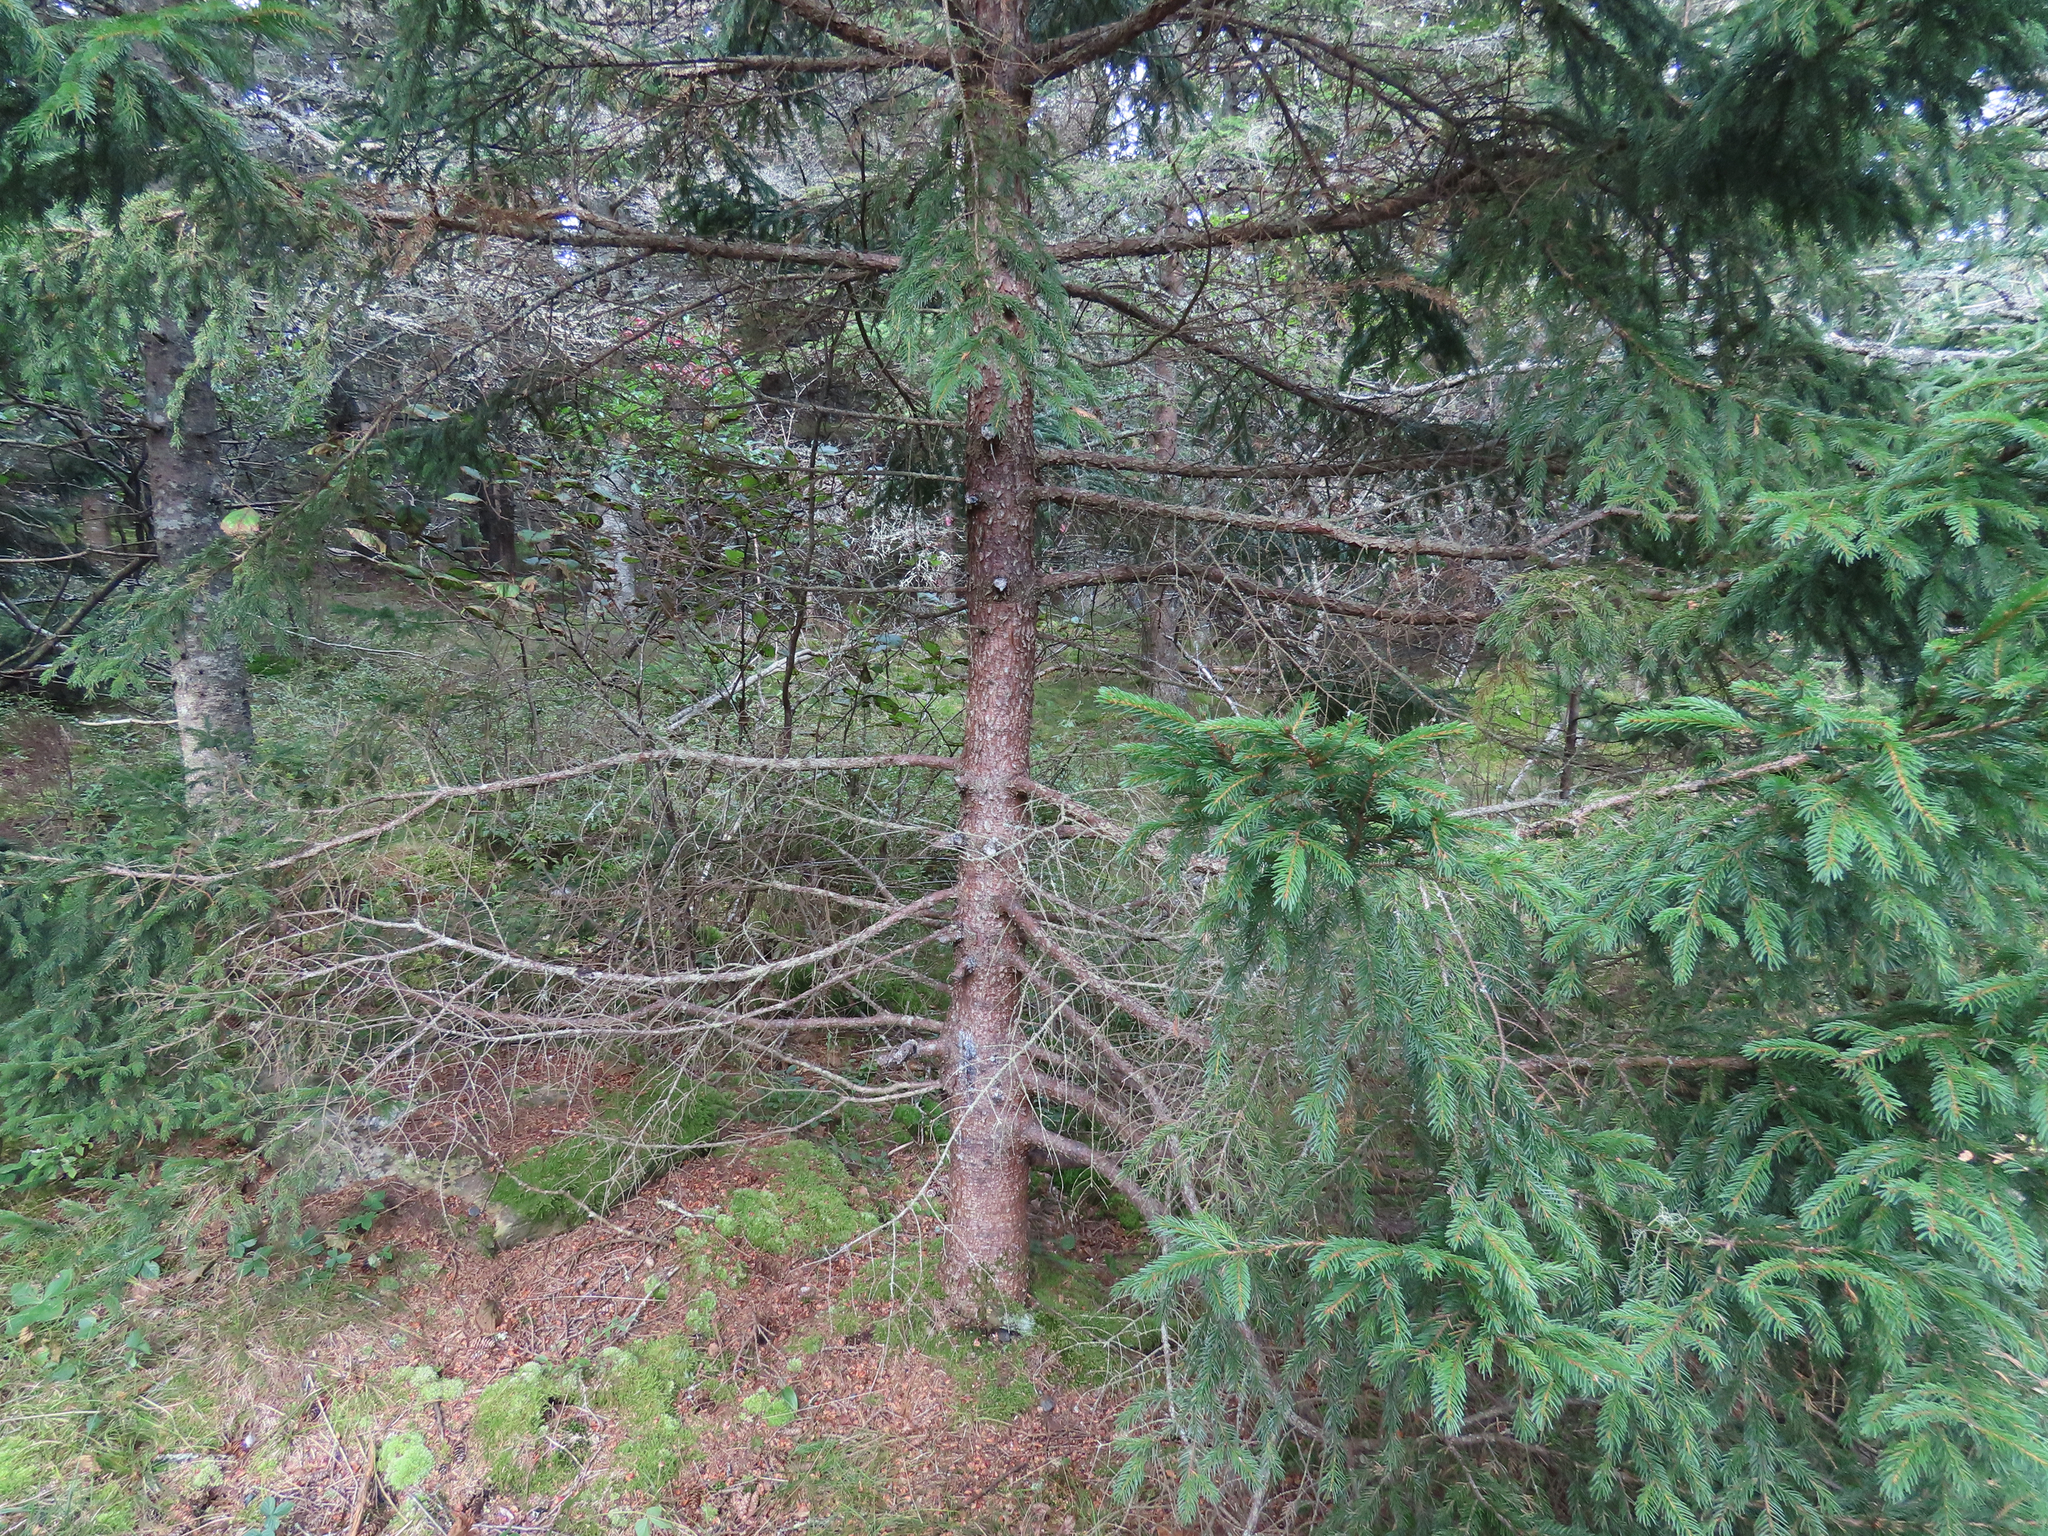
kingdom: Plantae
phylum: Tracheophyta
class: Pinopsida
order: Pinales
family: Pinaceae
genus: Picea
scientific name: Picea glauca
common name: White spruce
